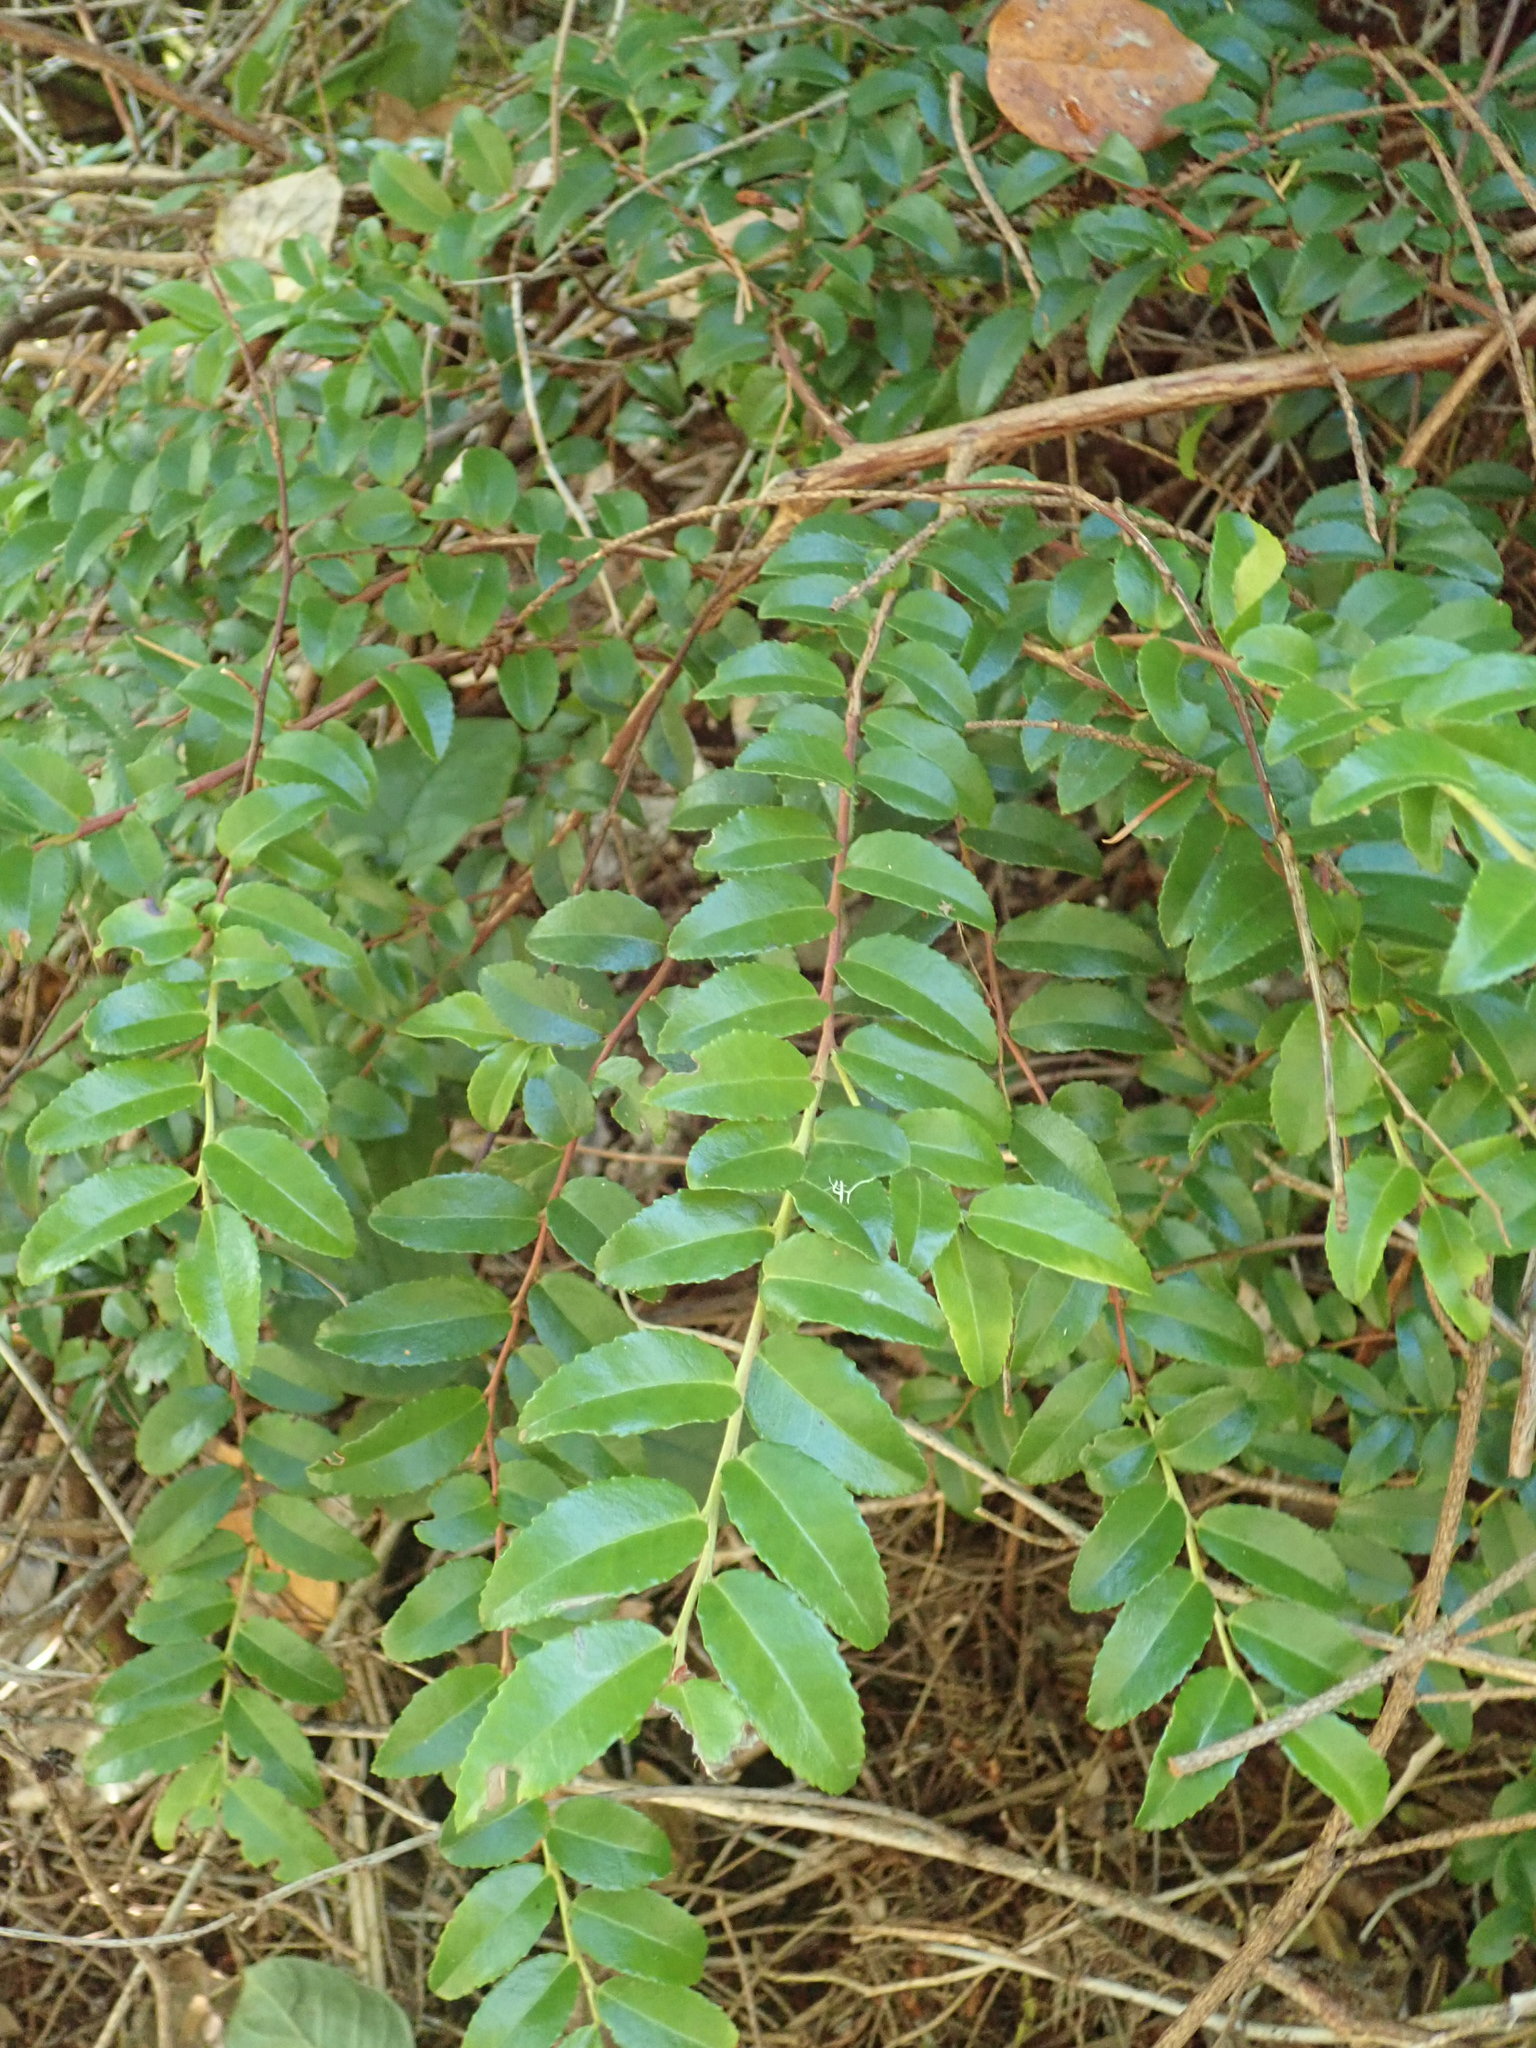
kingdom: Plantae
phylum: Tracheophyta
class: Magnoliopsida
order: Ericales
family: Ericaceae
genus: Vaccinium
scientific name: Vaccinium ovatum
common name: California-huckleberry
